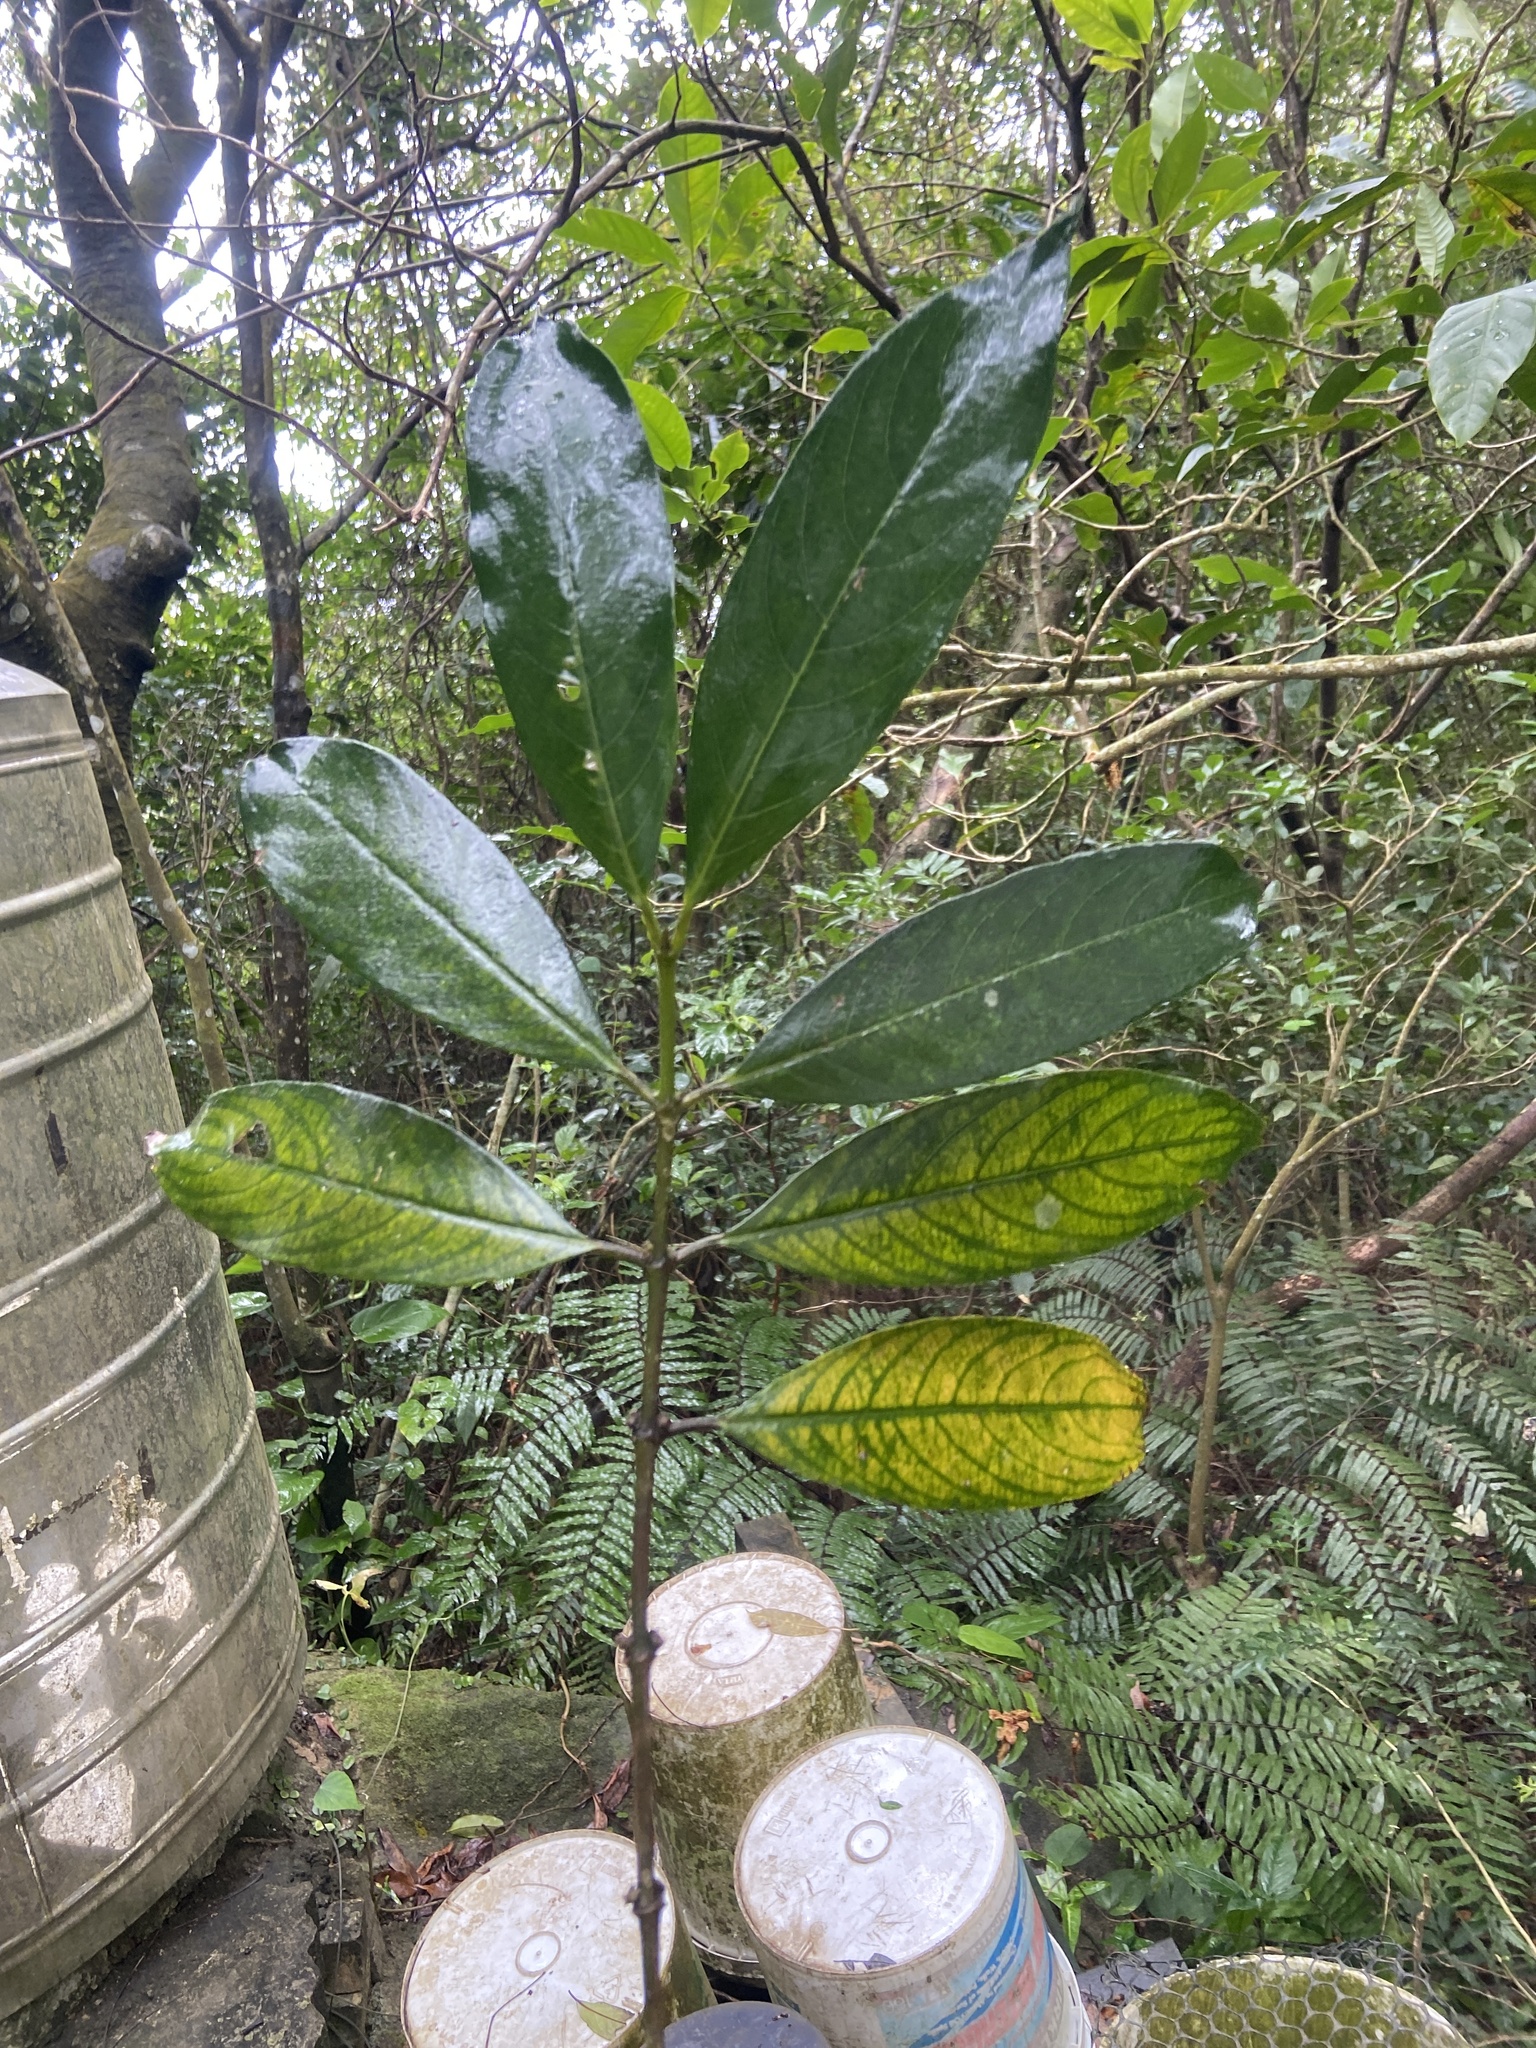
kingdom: Plantae
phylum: Tracheophyta
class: Magnoliopsida
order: Gentianales
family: Rubiaceae
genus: Lasianthus
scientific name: Lasianthus chinensis
